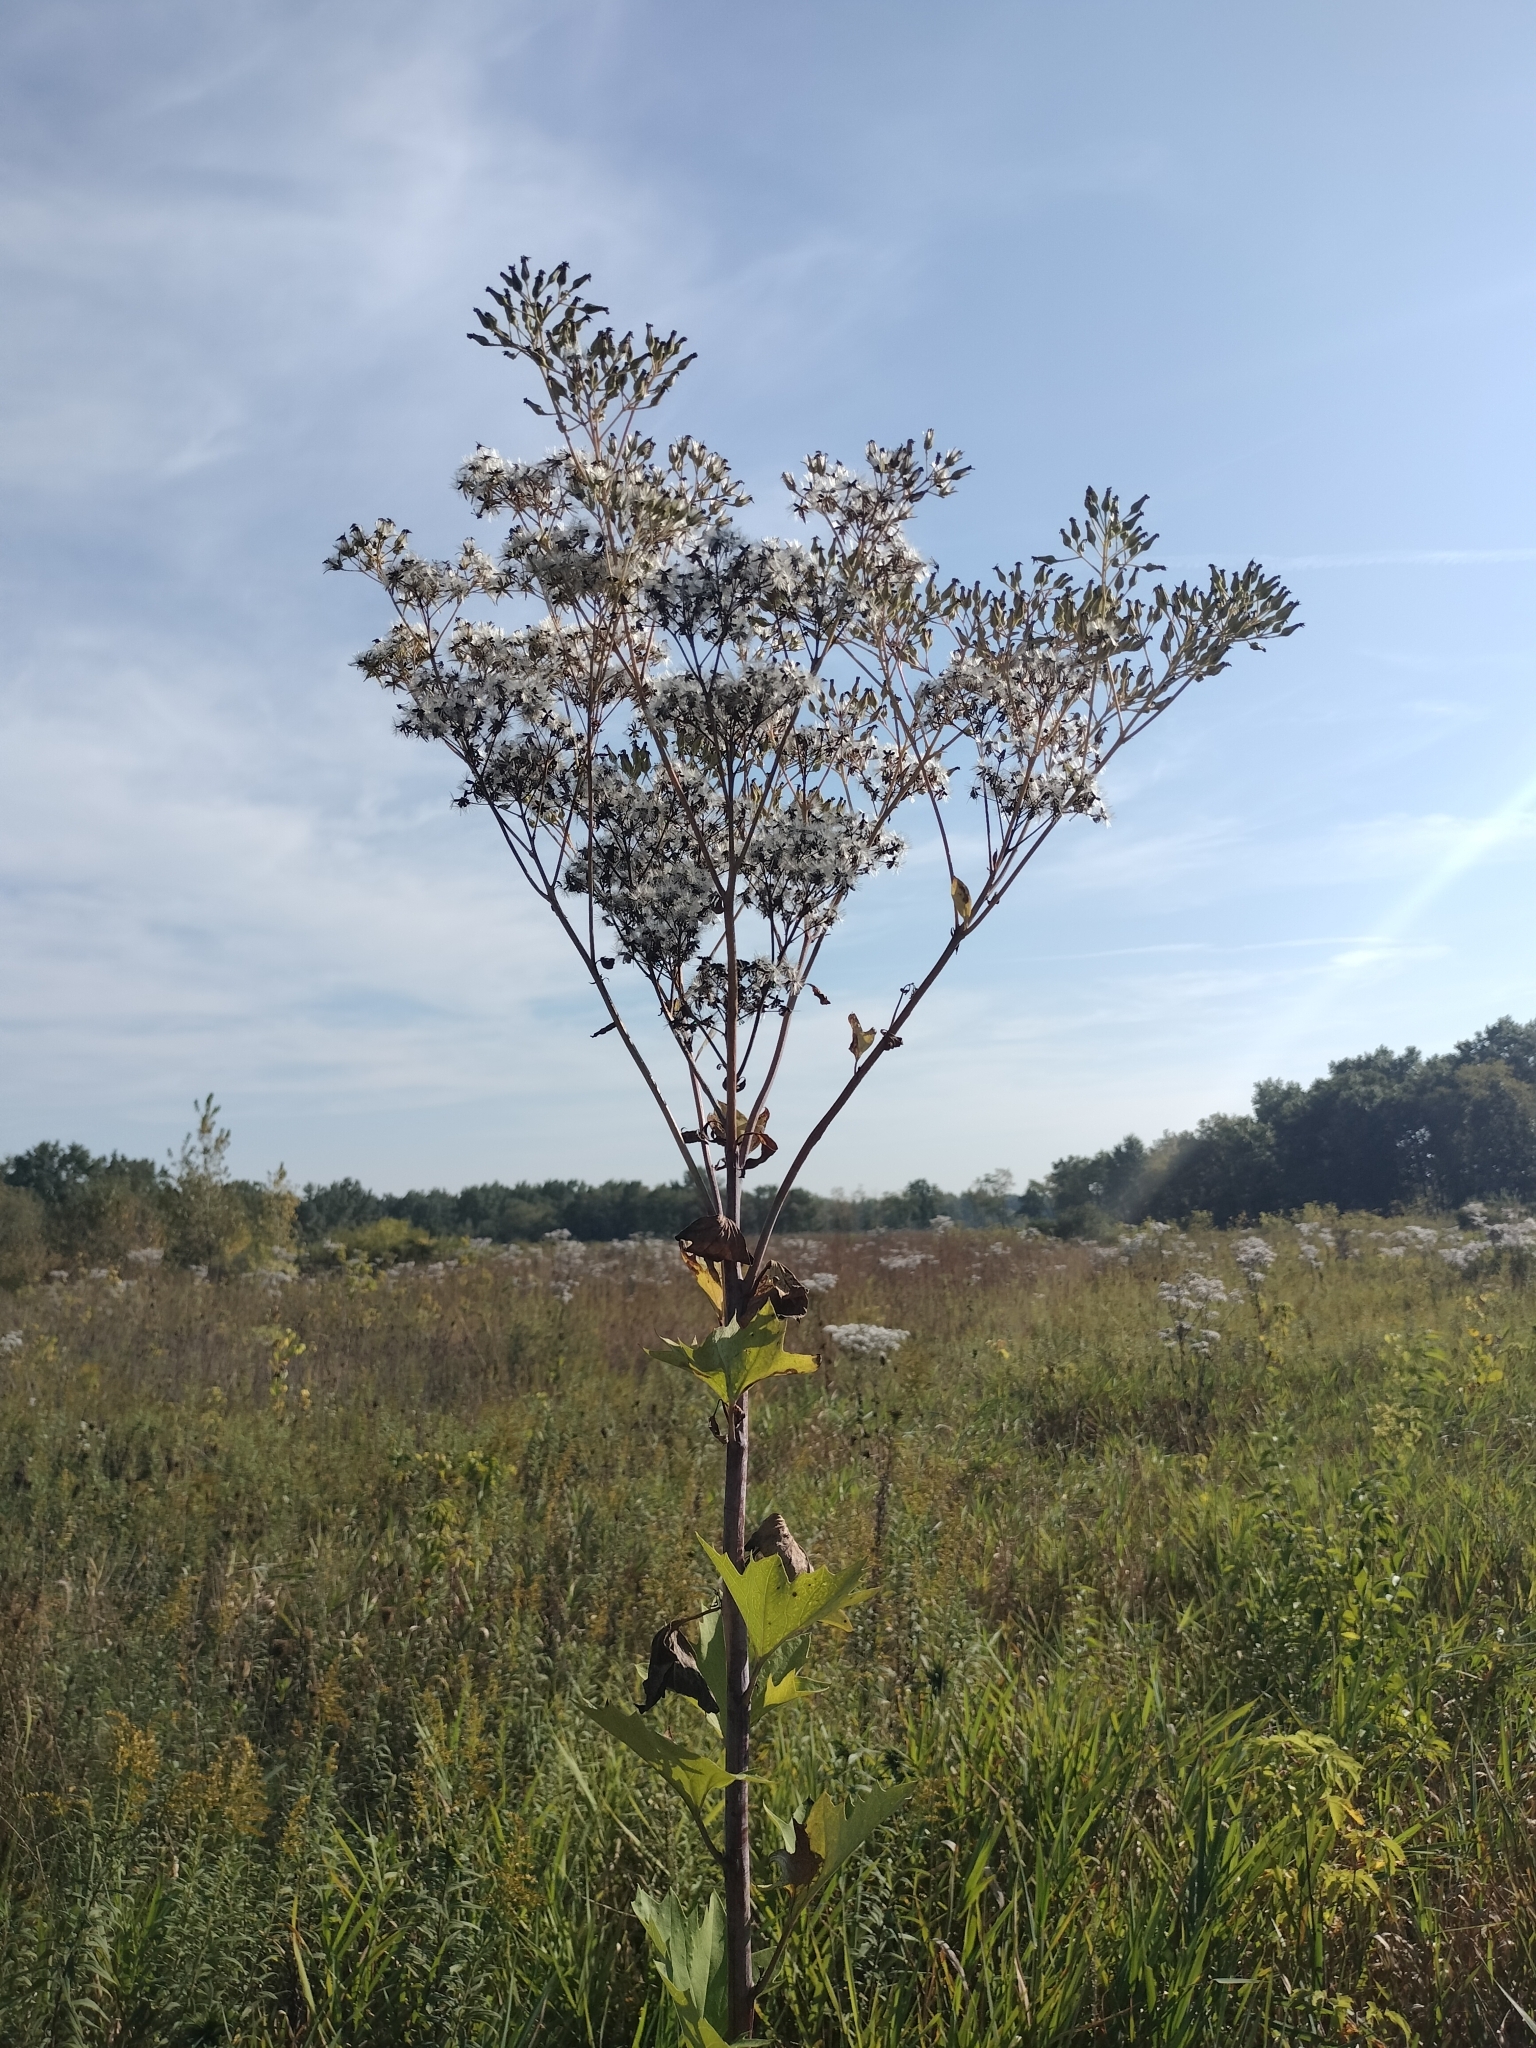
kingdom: Plantae
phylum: Tracheophyta
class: Magnoliopsida
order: Asterales
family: Asteraceae
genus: Arnoglossum
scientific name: Arnoglossum atriplicifolium
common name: Pale indian-plantain
